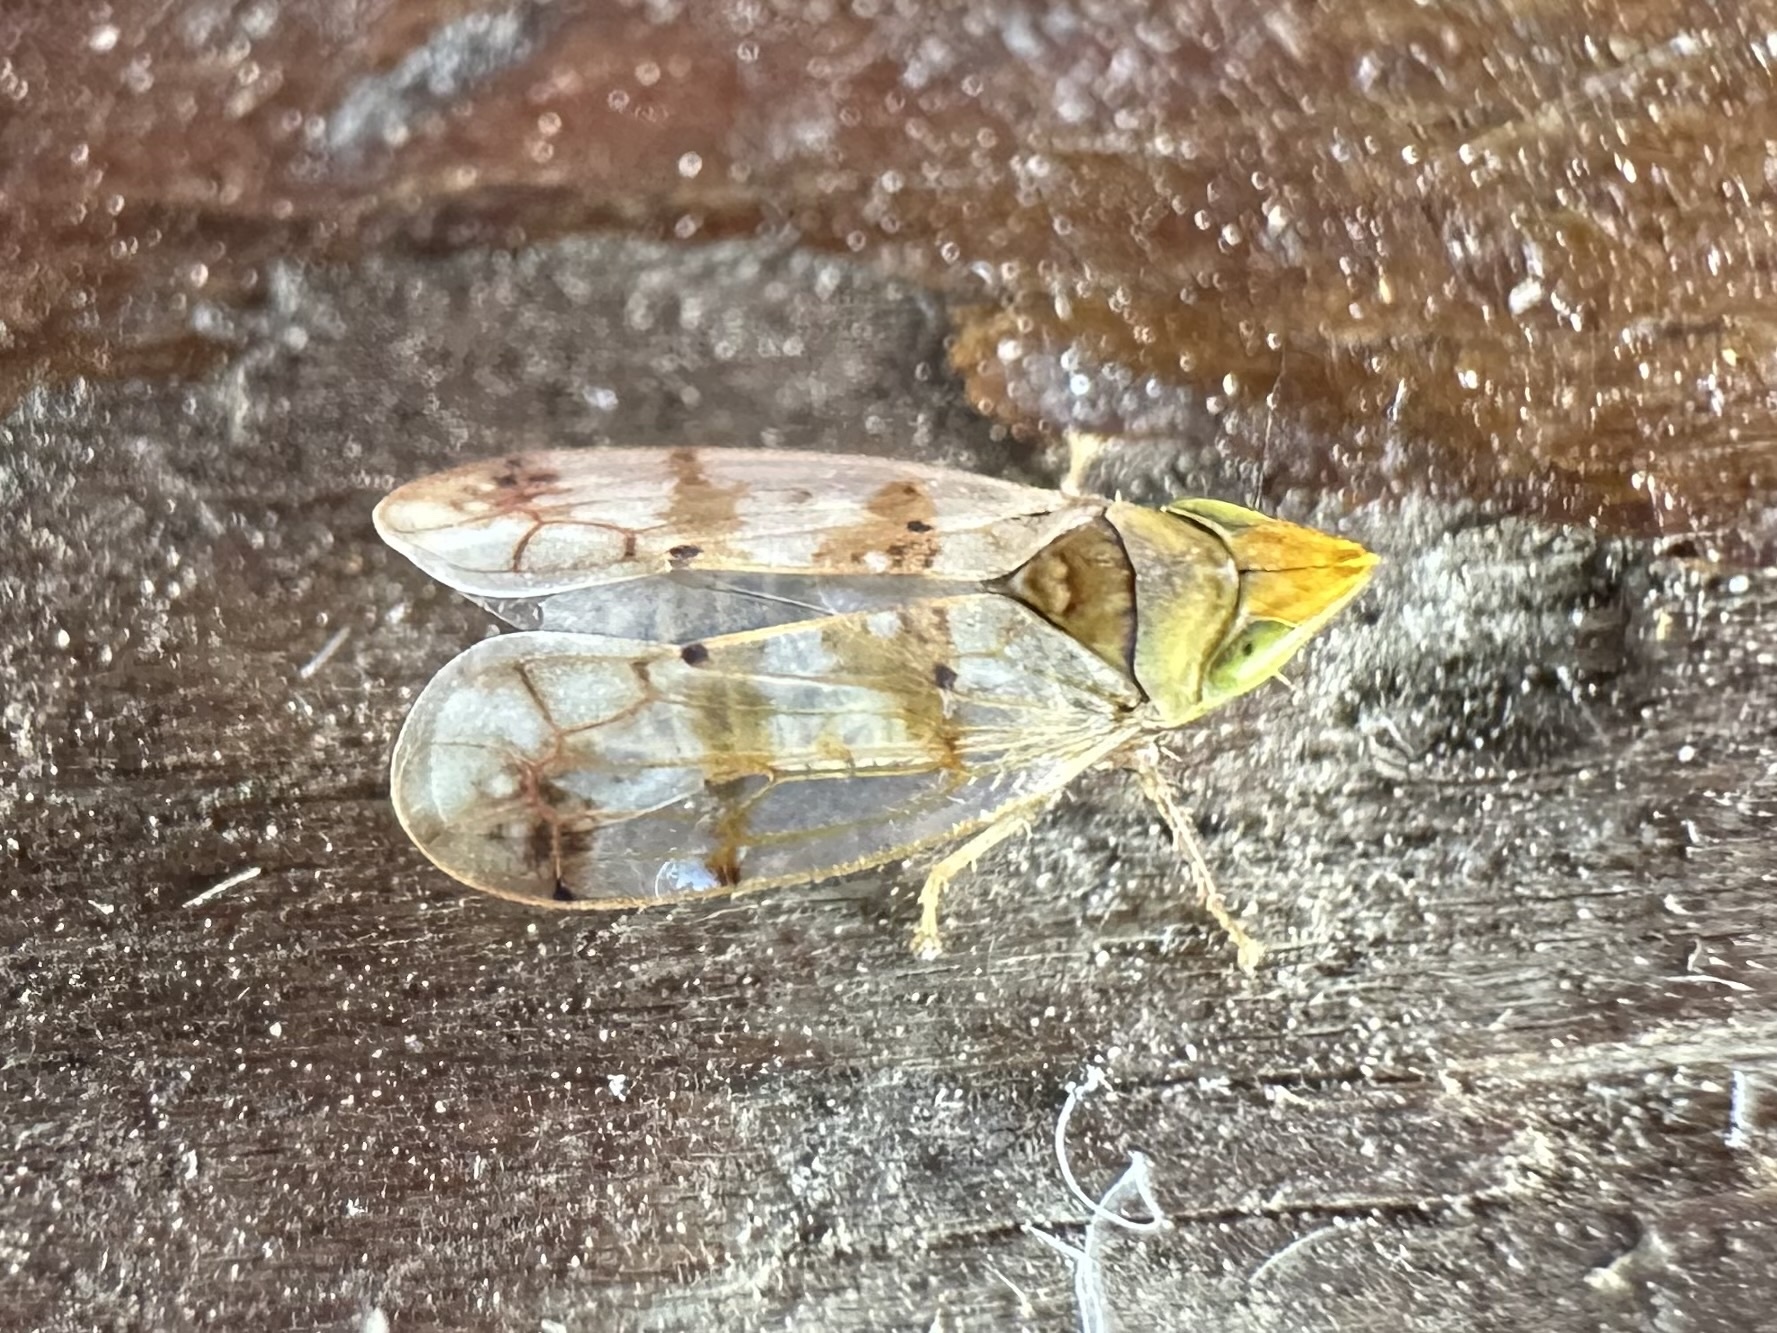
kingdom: Animalia
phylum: Arthropoda
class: Insecta
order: Hemiptera
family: Cicadellidae
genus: Japananus
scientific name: Japananus hyalinus
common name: The japanese maple leafhopper
